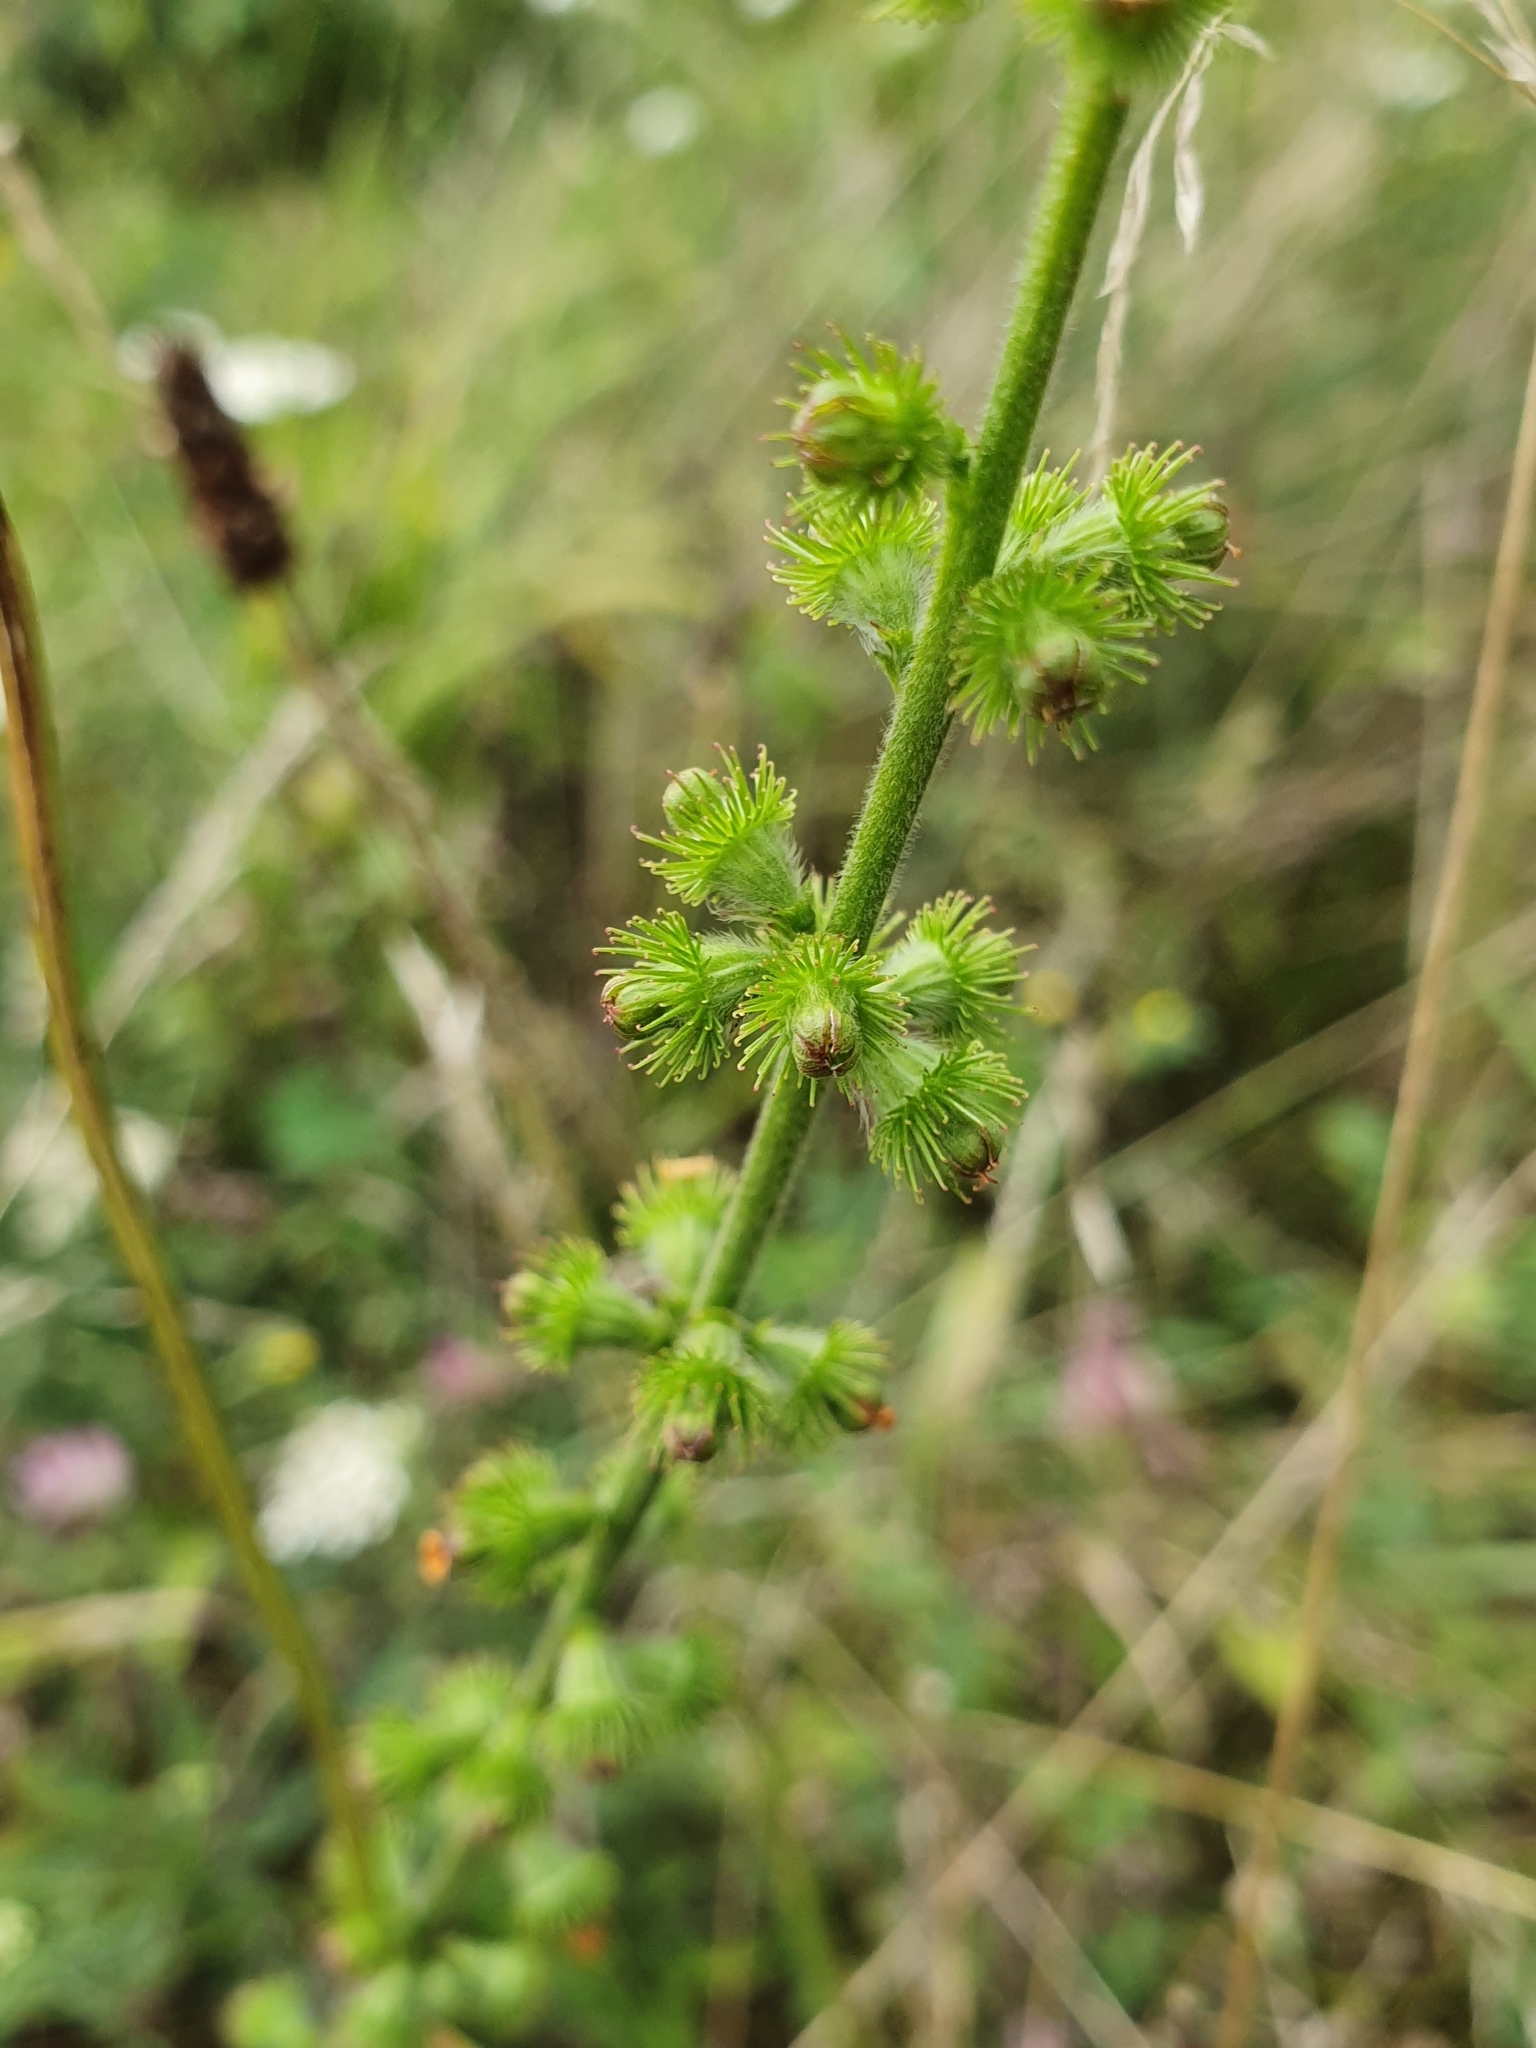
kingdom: Plantae
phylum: Tracheophyta
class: Magnoliopsida
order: Rosales
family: Rosaceae
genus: Agrimonia
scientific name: Agrimonia eupatoria
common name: Agrimony
